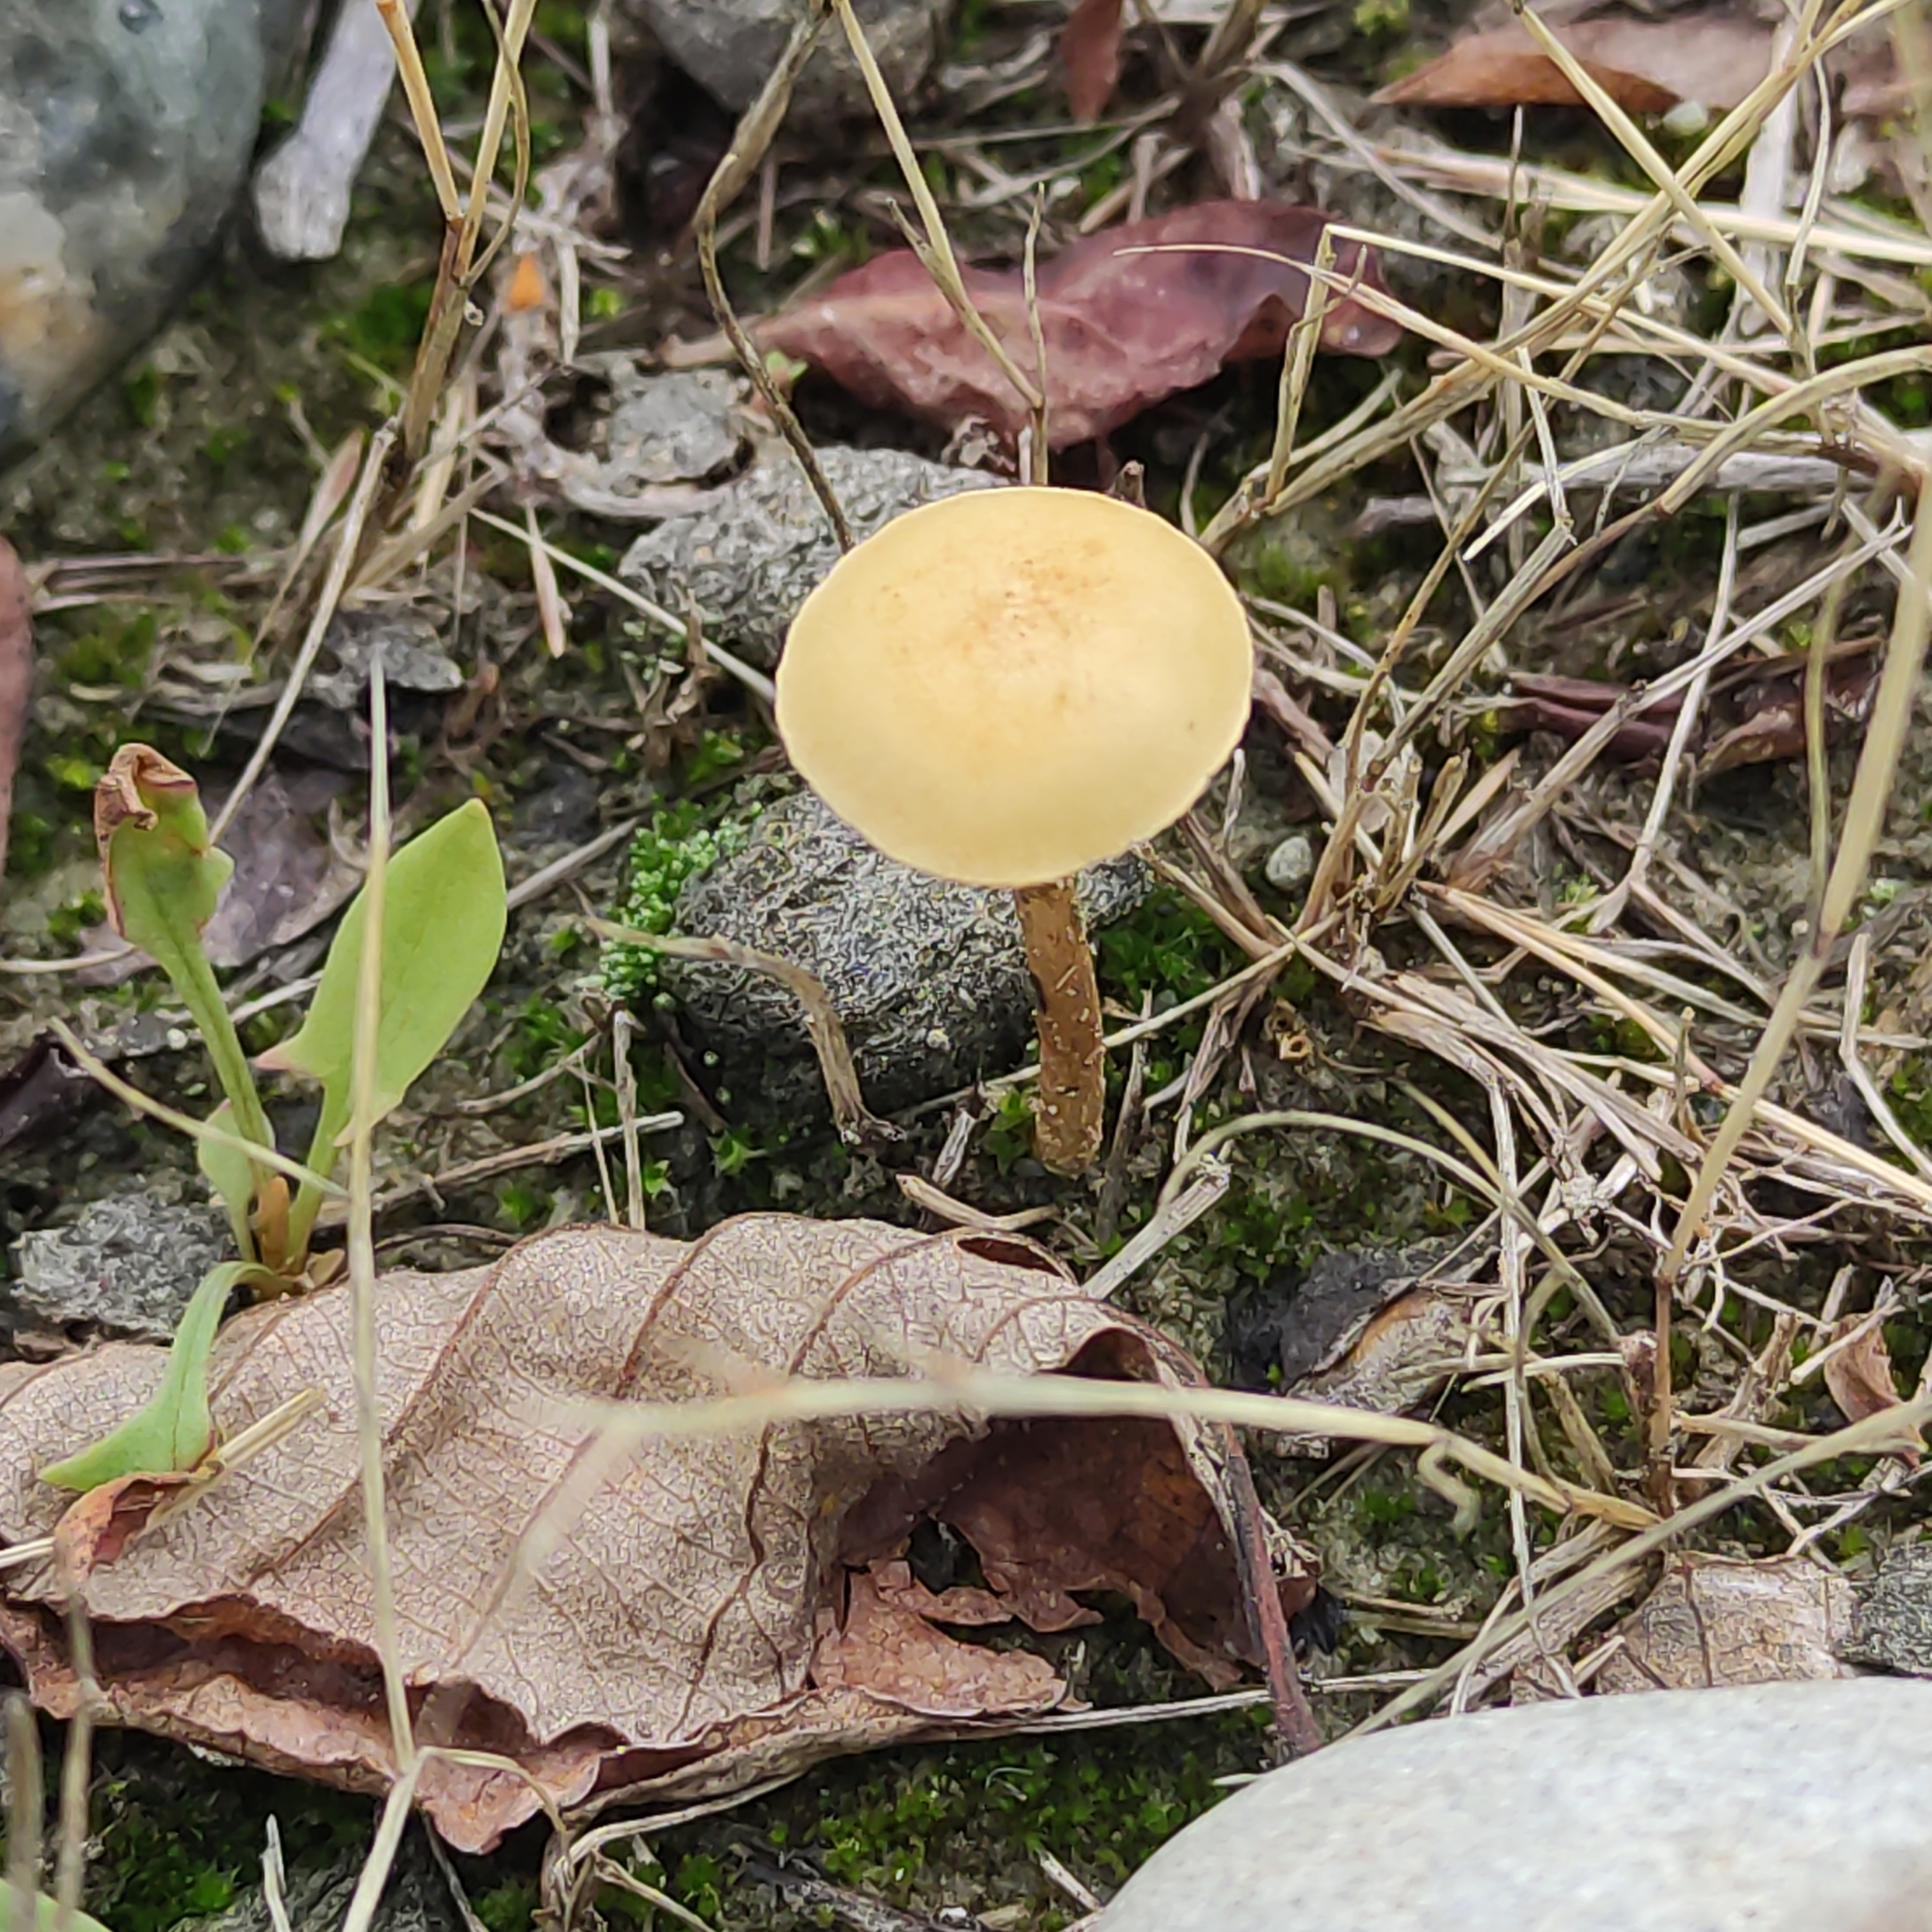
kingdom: Fungi
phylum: Basidiomycota
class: Agaricomycetes
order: Agaricales
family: Strophariaceae
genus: Agrocybe
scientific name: Agrocybe pediades
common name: Common fieldcap
